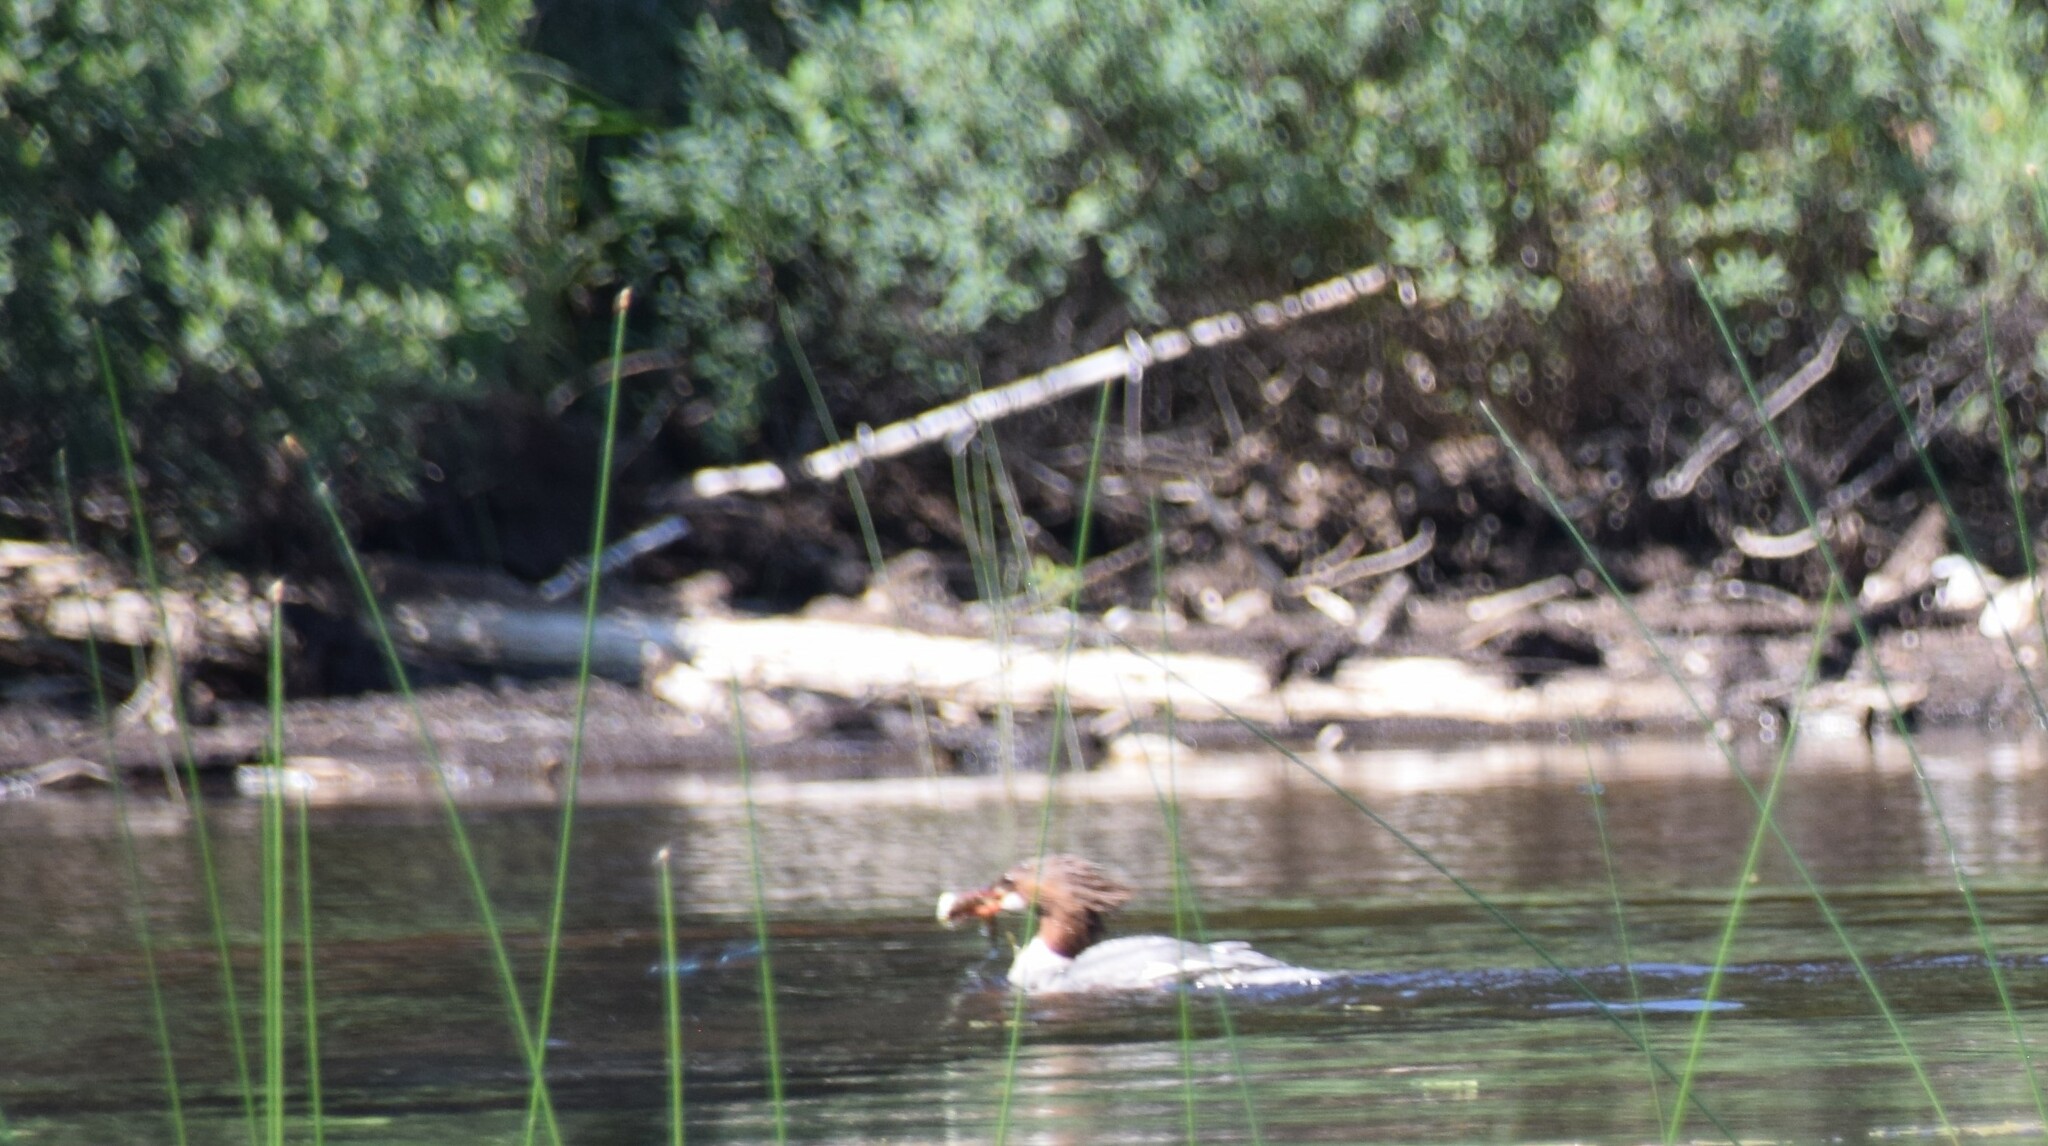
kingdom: Animalia
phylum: Chordata
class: Aves
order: Anseriformes
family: Anatidae
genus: Mergus
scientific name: Mergus merganser
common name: Common merganser
